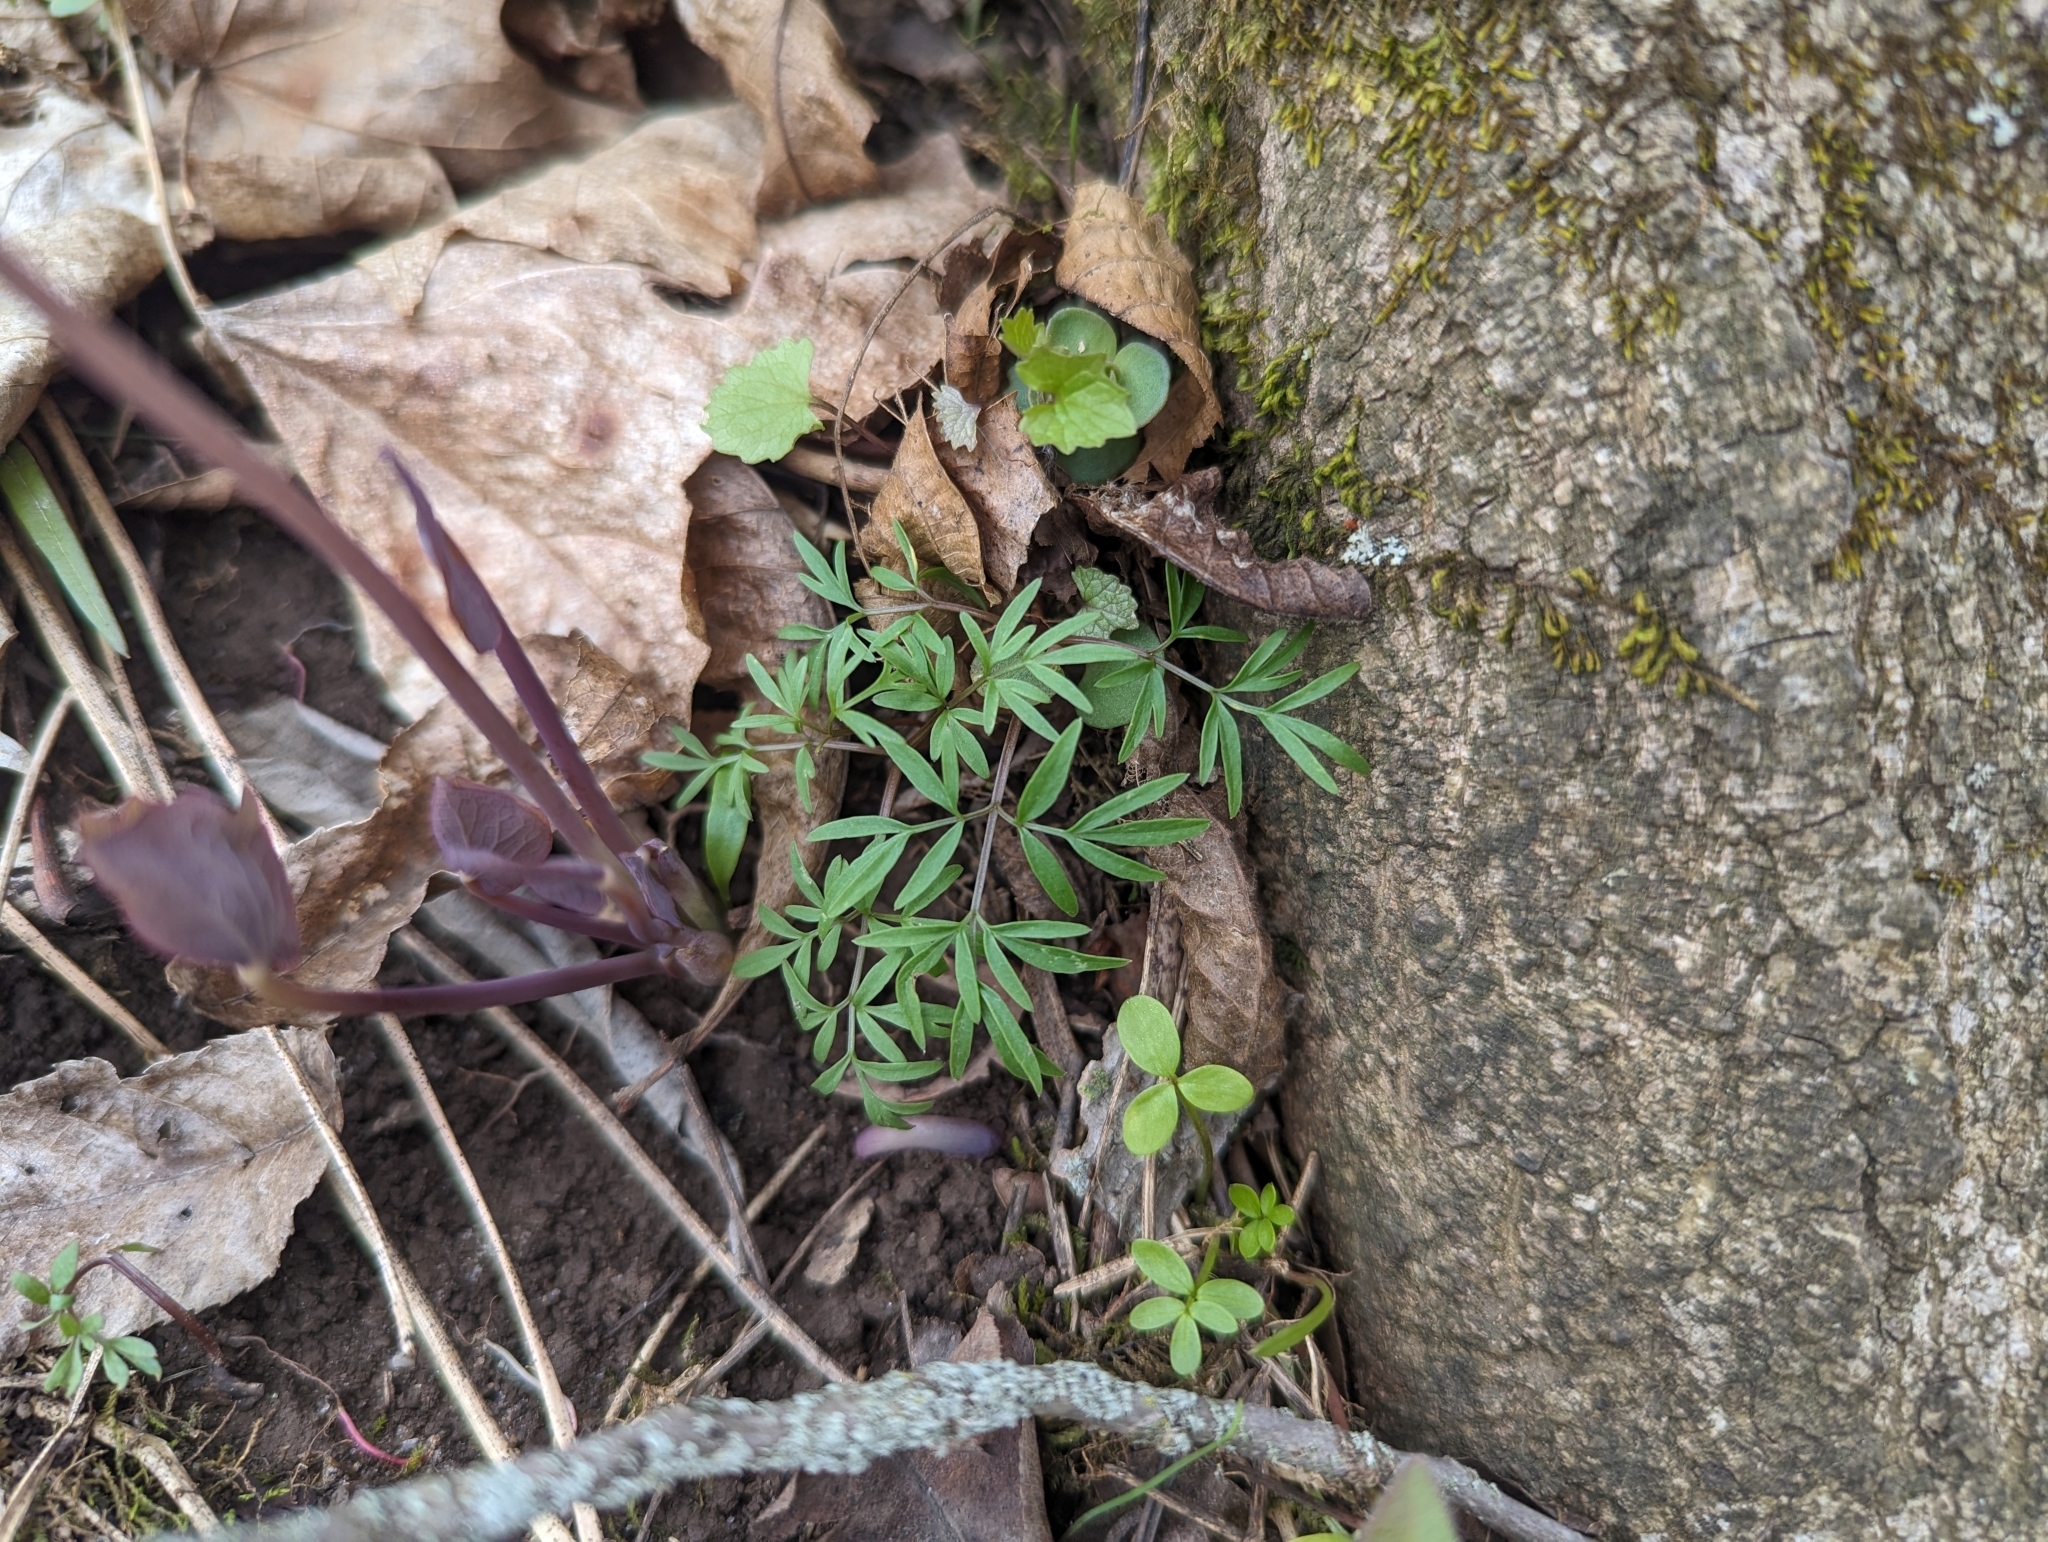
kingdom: Plantae
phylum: Tracheophyta
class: Magnoliopsida
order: Apiales
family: Apiaceae
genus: Erigenia
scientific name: Erigenia bulbosa
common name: Pepper-and-salt
